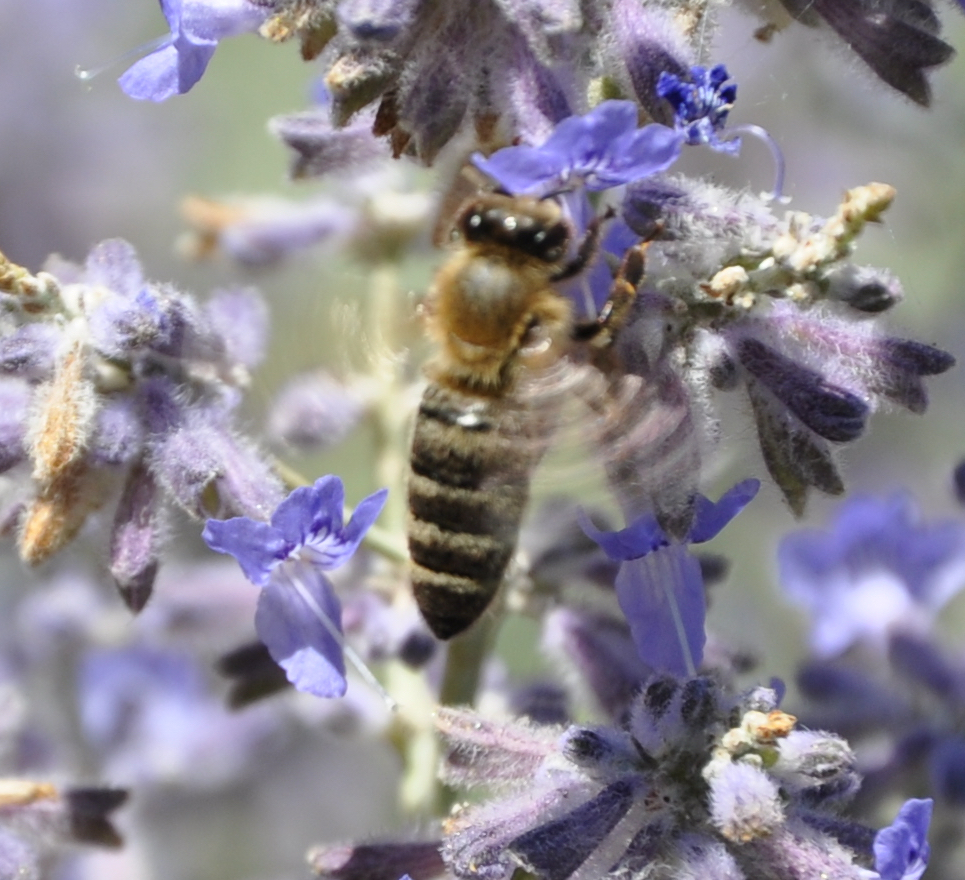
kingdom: Animalia
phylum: Arthropoda
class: Insecta
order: Hymenoptera
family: Apidae
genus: Apis
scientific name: Apis mellifera
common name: Honey bee
